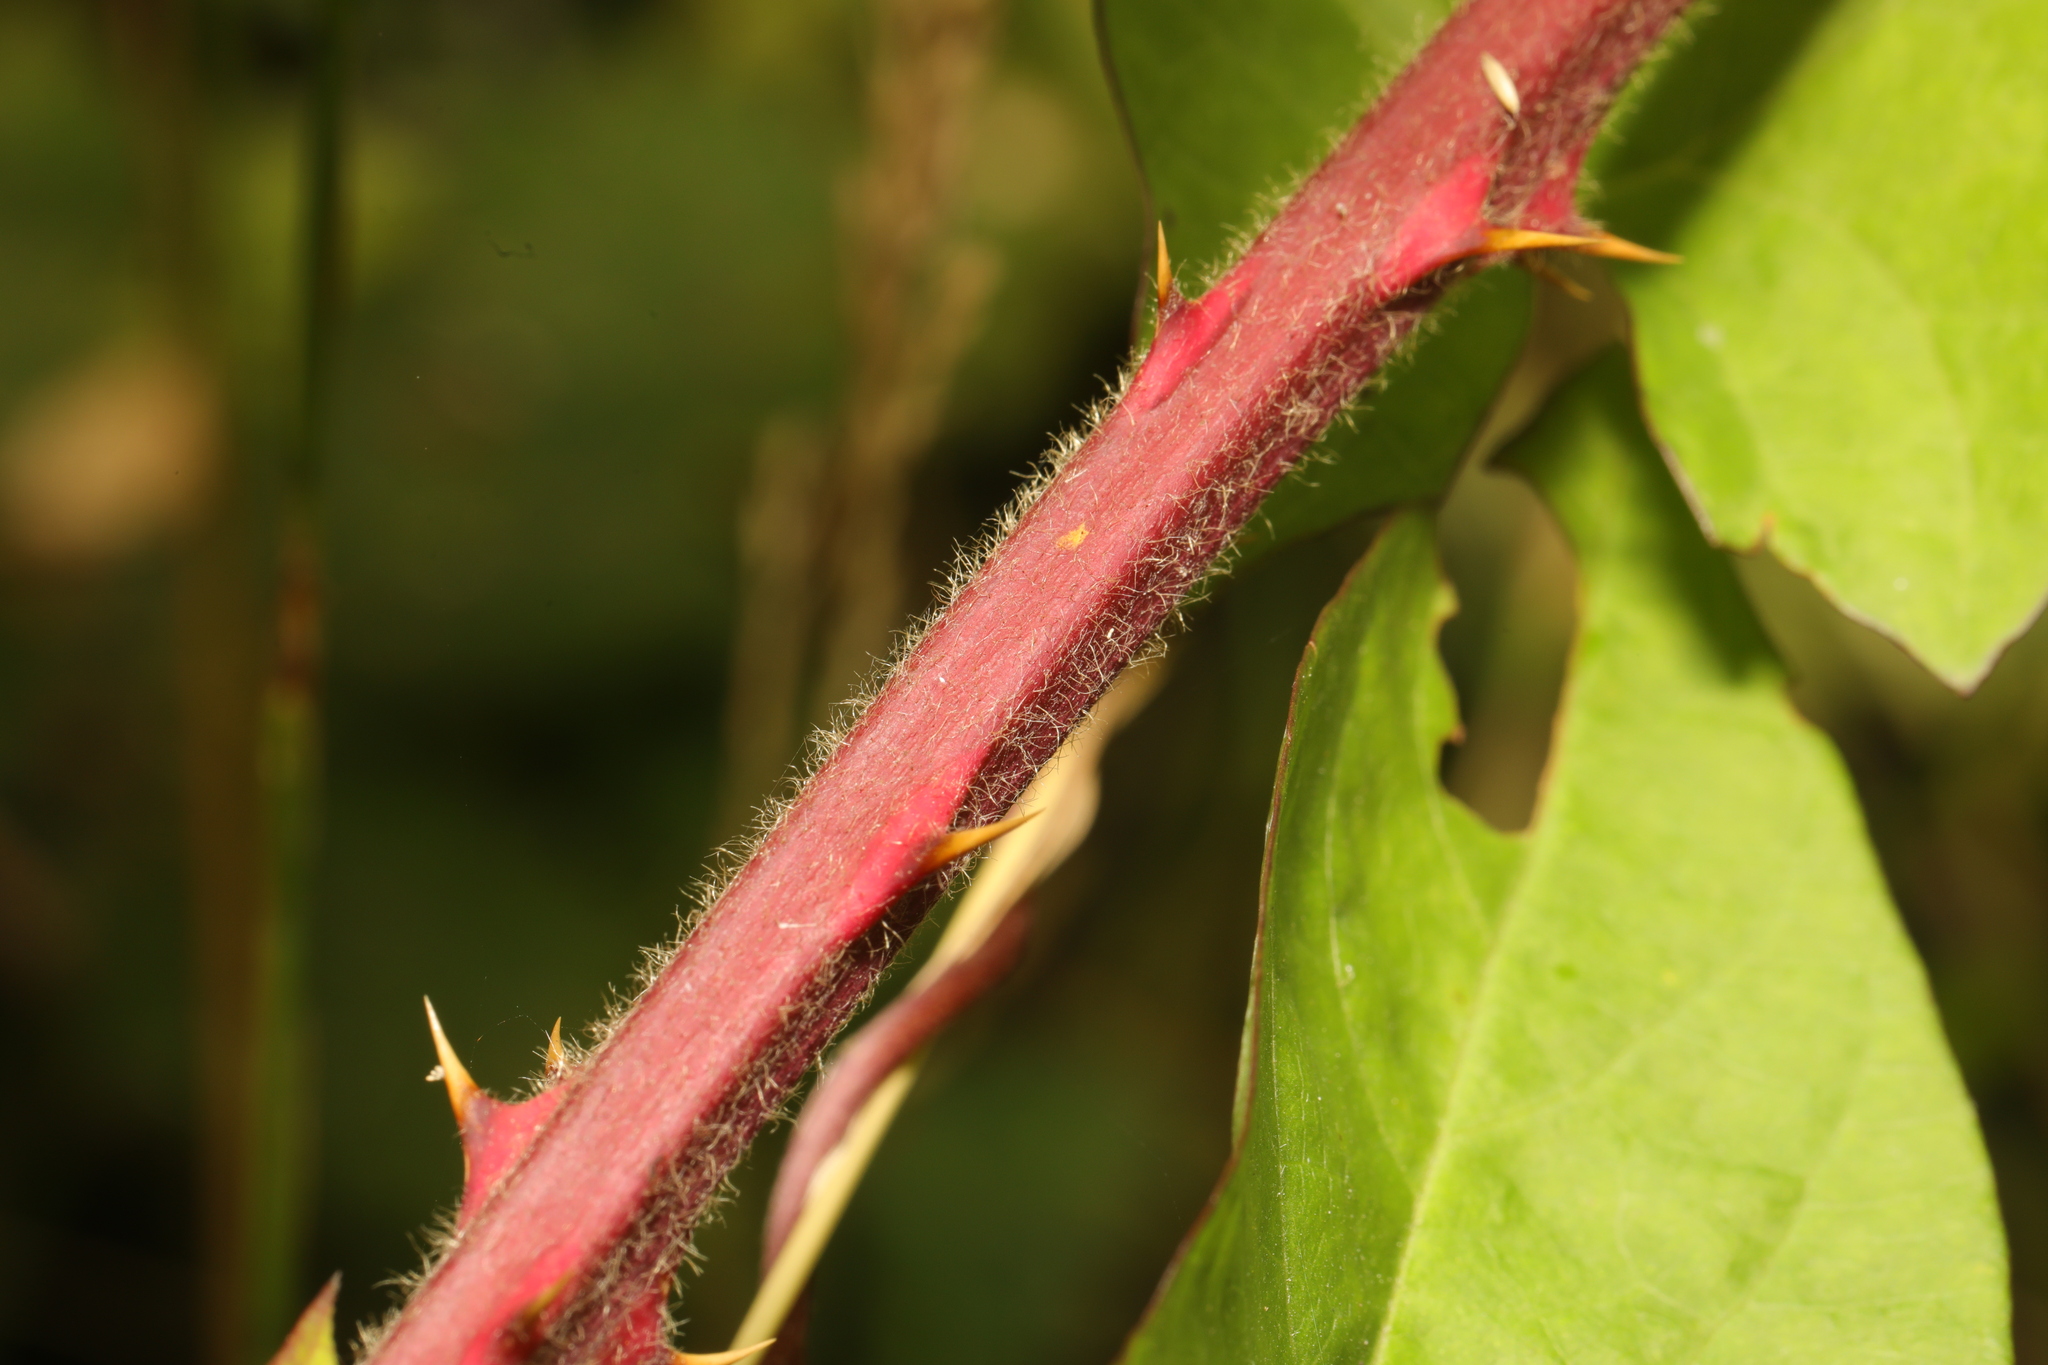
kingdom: Plantae
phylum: Tracheophyta
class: Magnoliopsida
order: Rosales
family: Rosaceae
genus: Rubus
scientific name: Rubus fruticosus
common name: Blackberry, bramble
